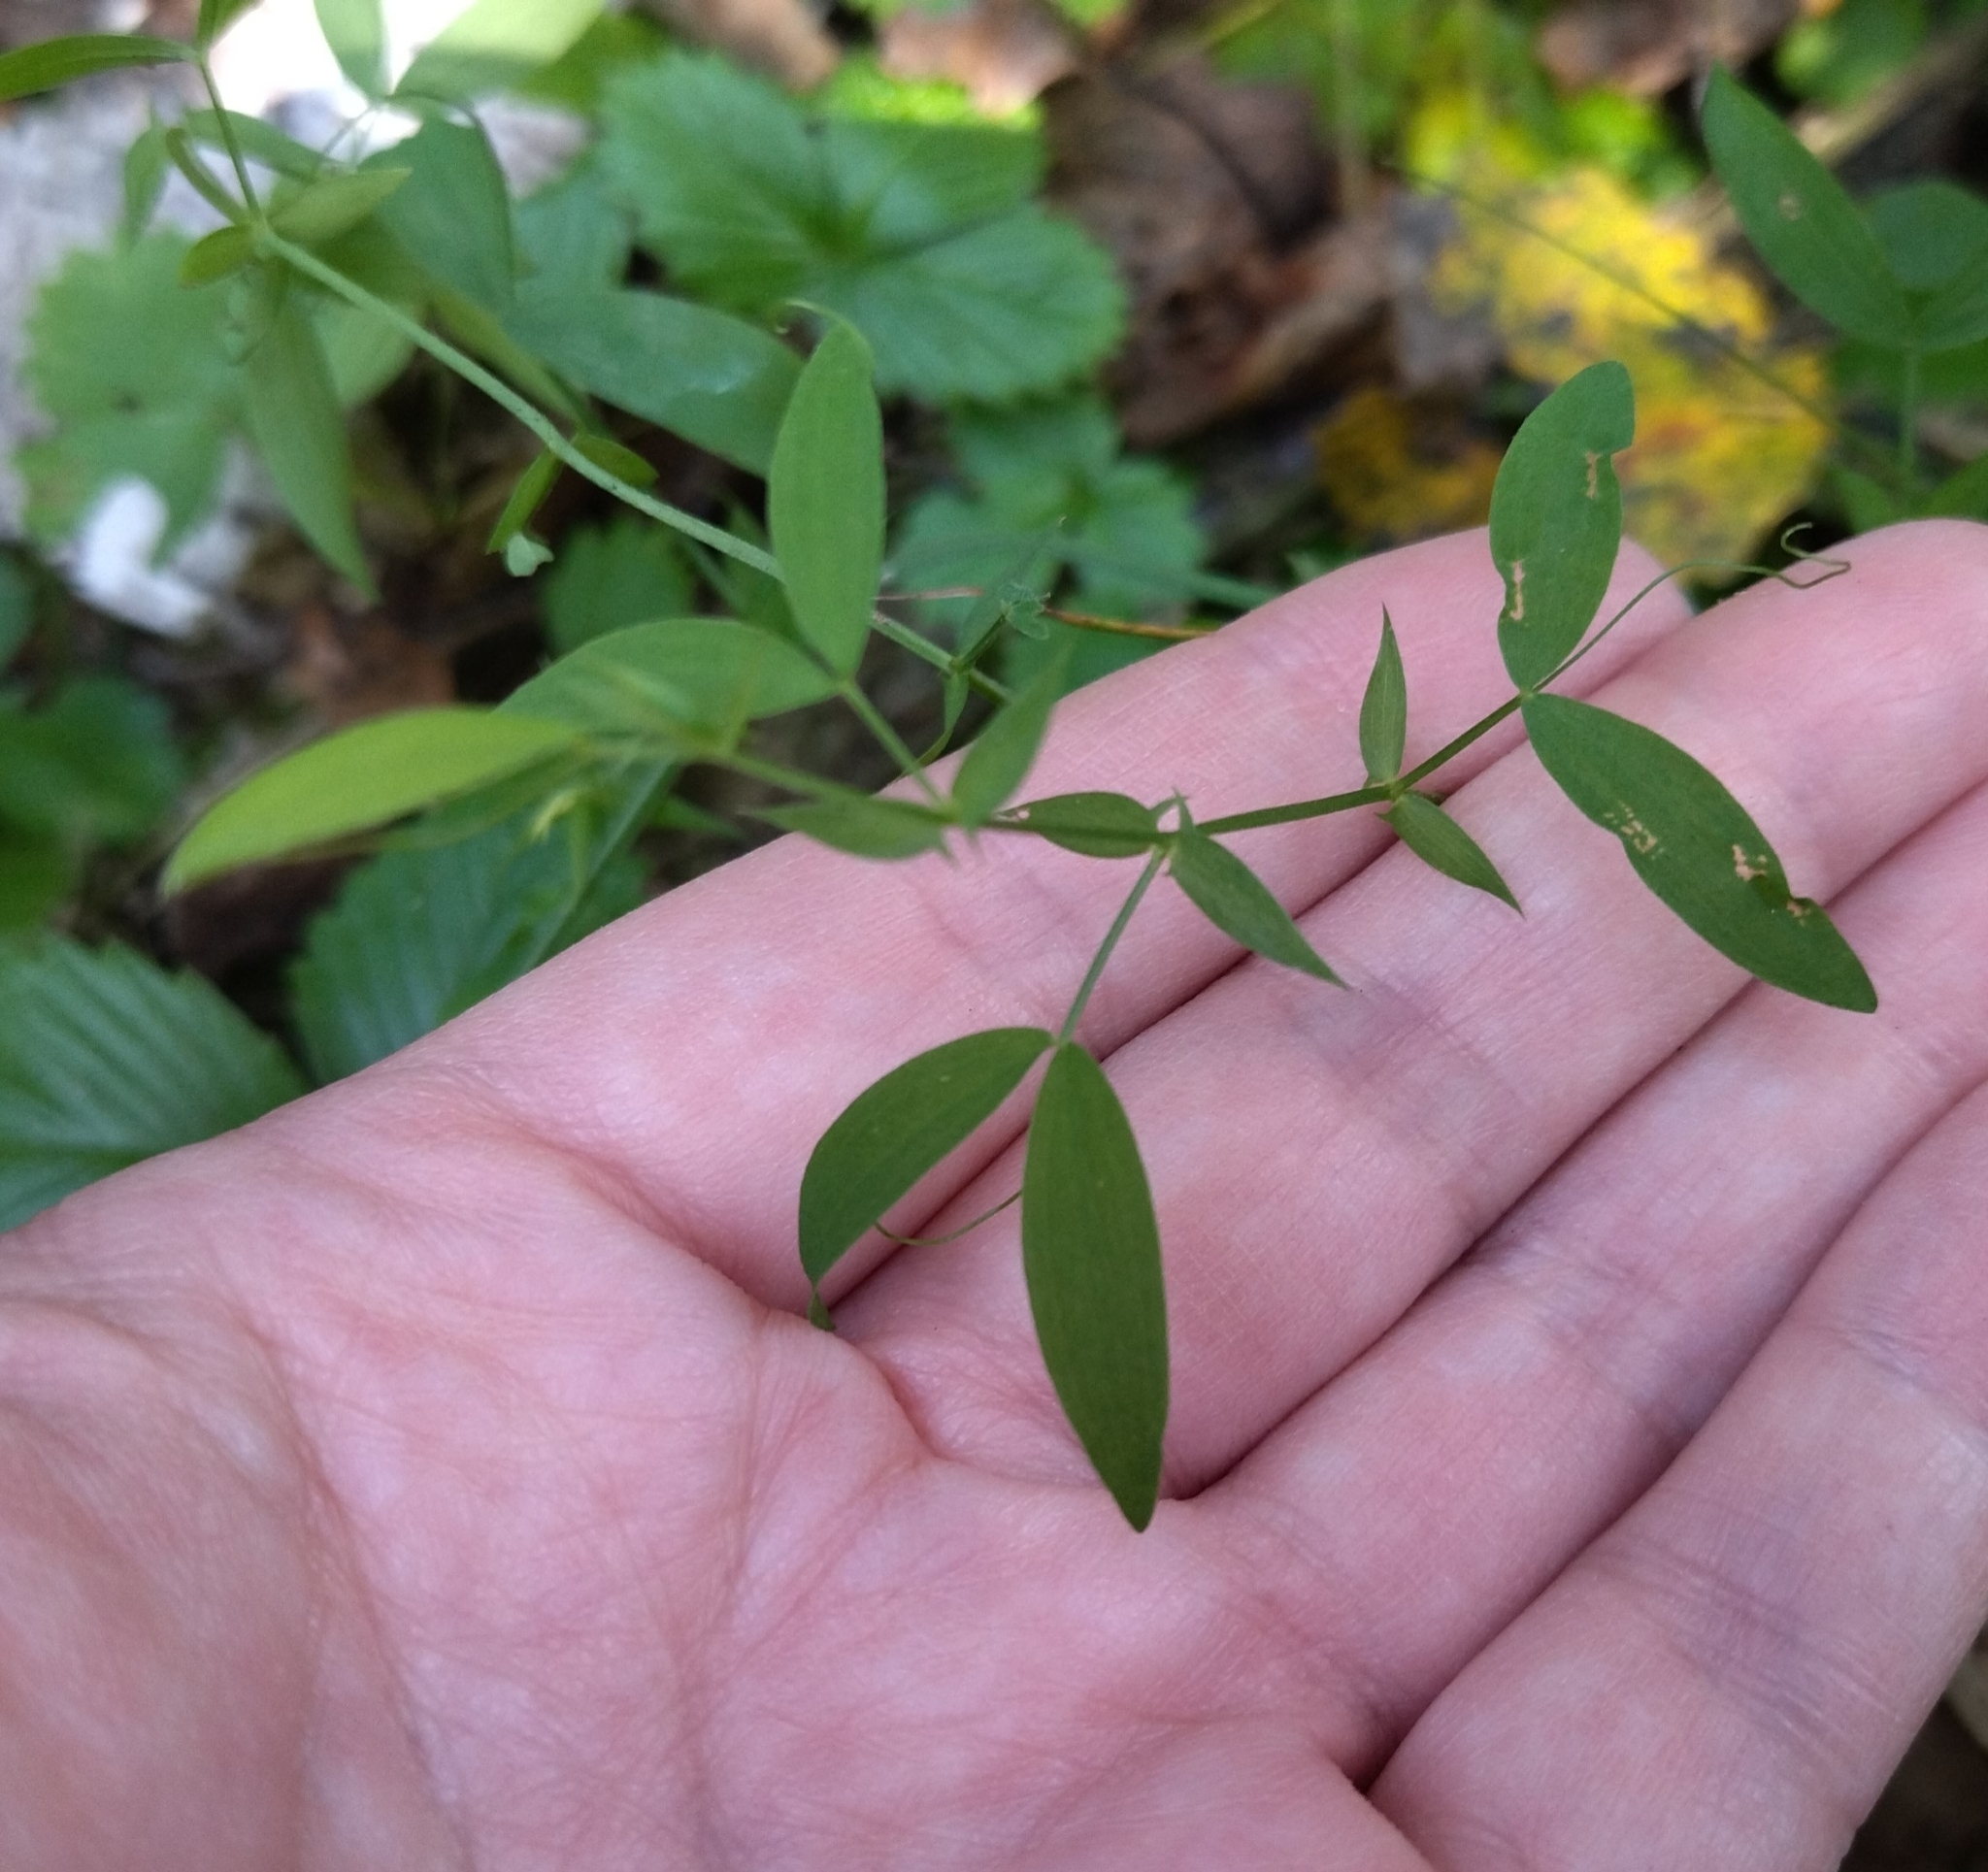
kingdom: Plantae
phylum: Tracheophyta
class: Magnoliopsida
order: Fabales
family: Fabaceae
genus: Lathyrus
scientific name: Lathyrus pratensis
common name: Meadow vetchling
